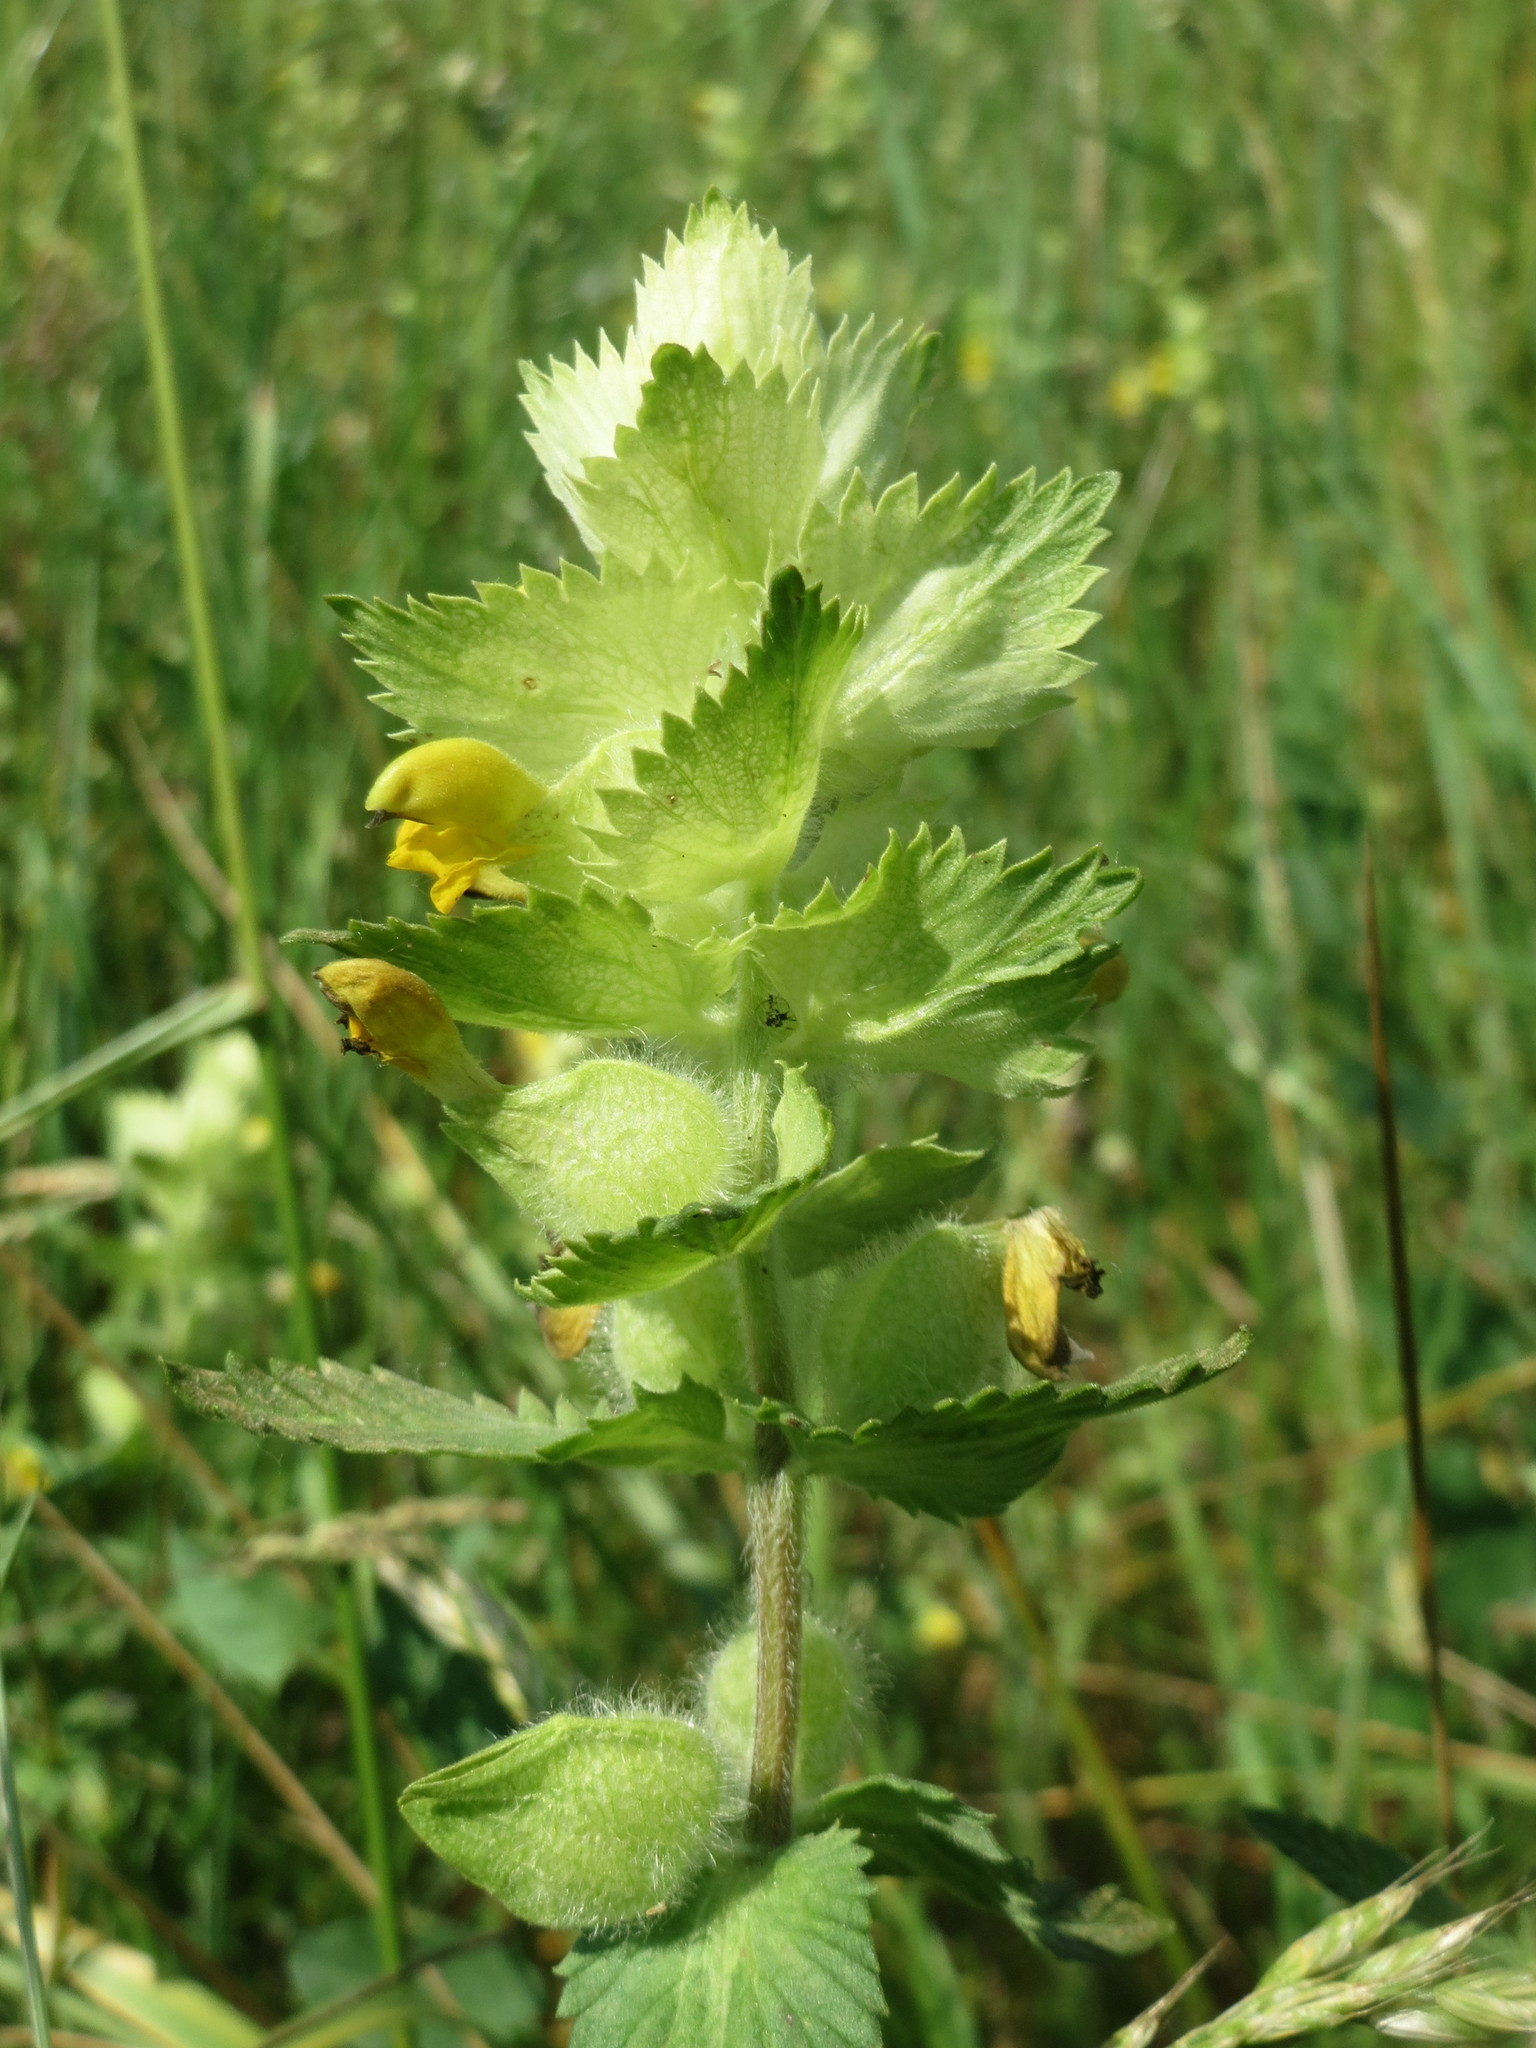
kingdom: Plantae
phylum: Tracheophyta
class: Magnoliopsida
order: Lamiales
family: Orobanchaceae
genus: Rhinanthus
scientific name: Rhinanthus alectorolophus
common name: Greater yellow-rattle
